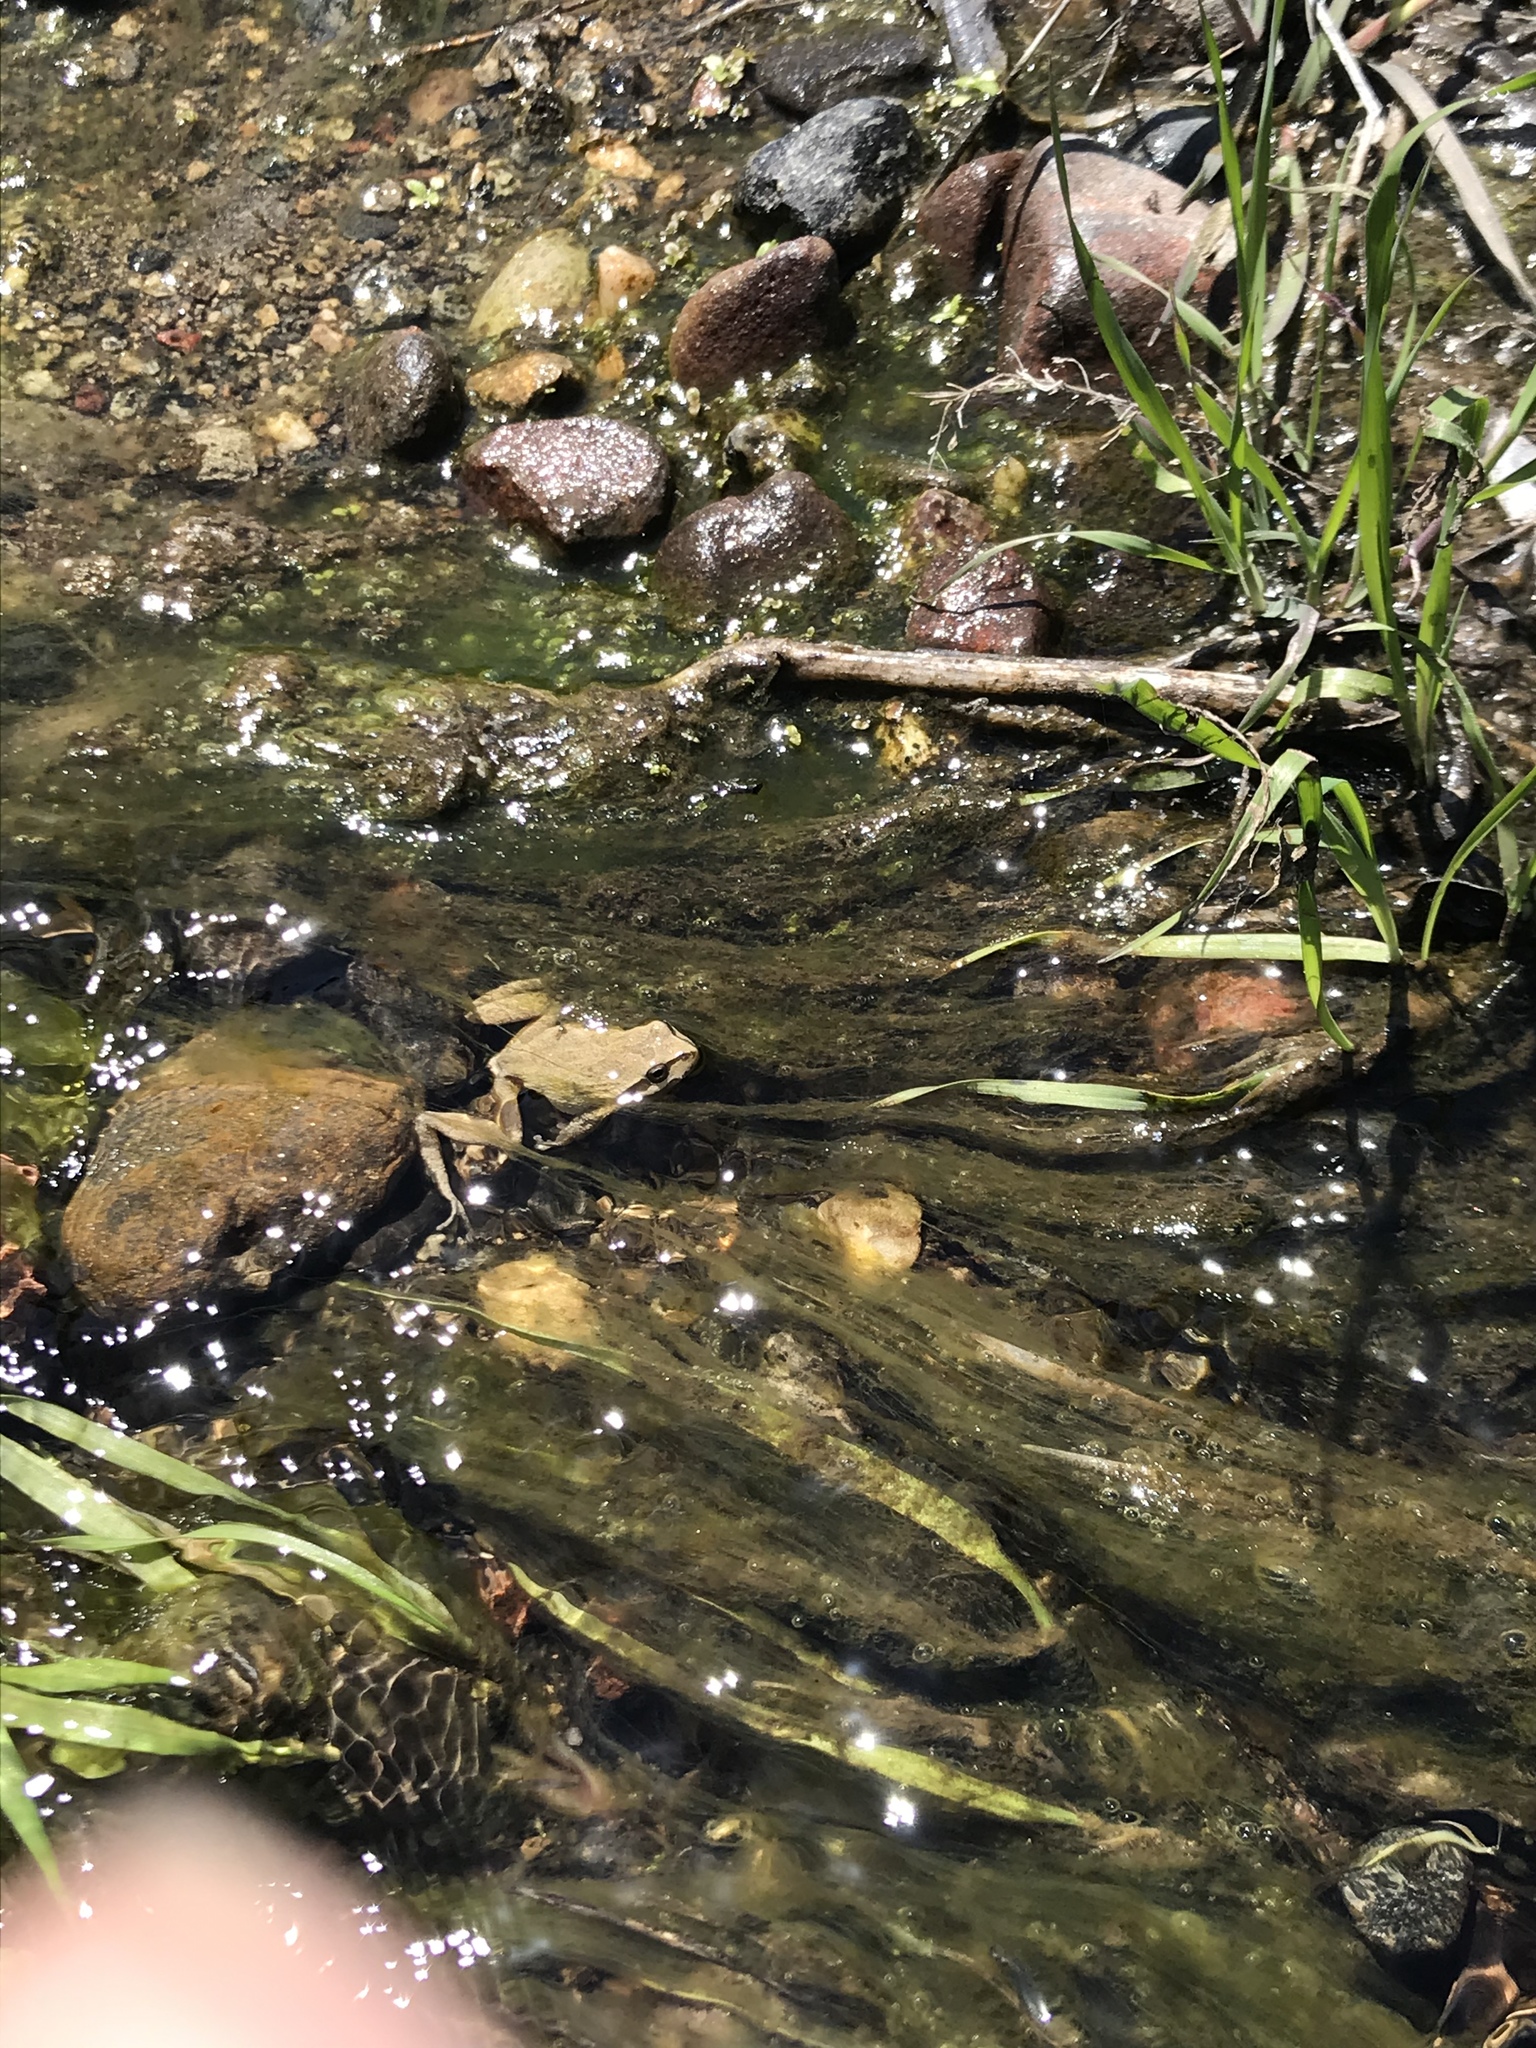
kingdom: Animalia
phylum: Chordata
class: Amphibia
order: Anura
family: Hylidae
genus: Pseudacris
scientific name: Pseudacris regilla
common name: Pacific chorus frog
